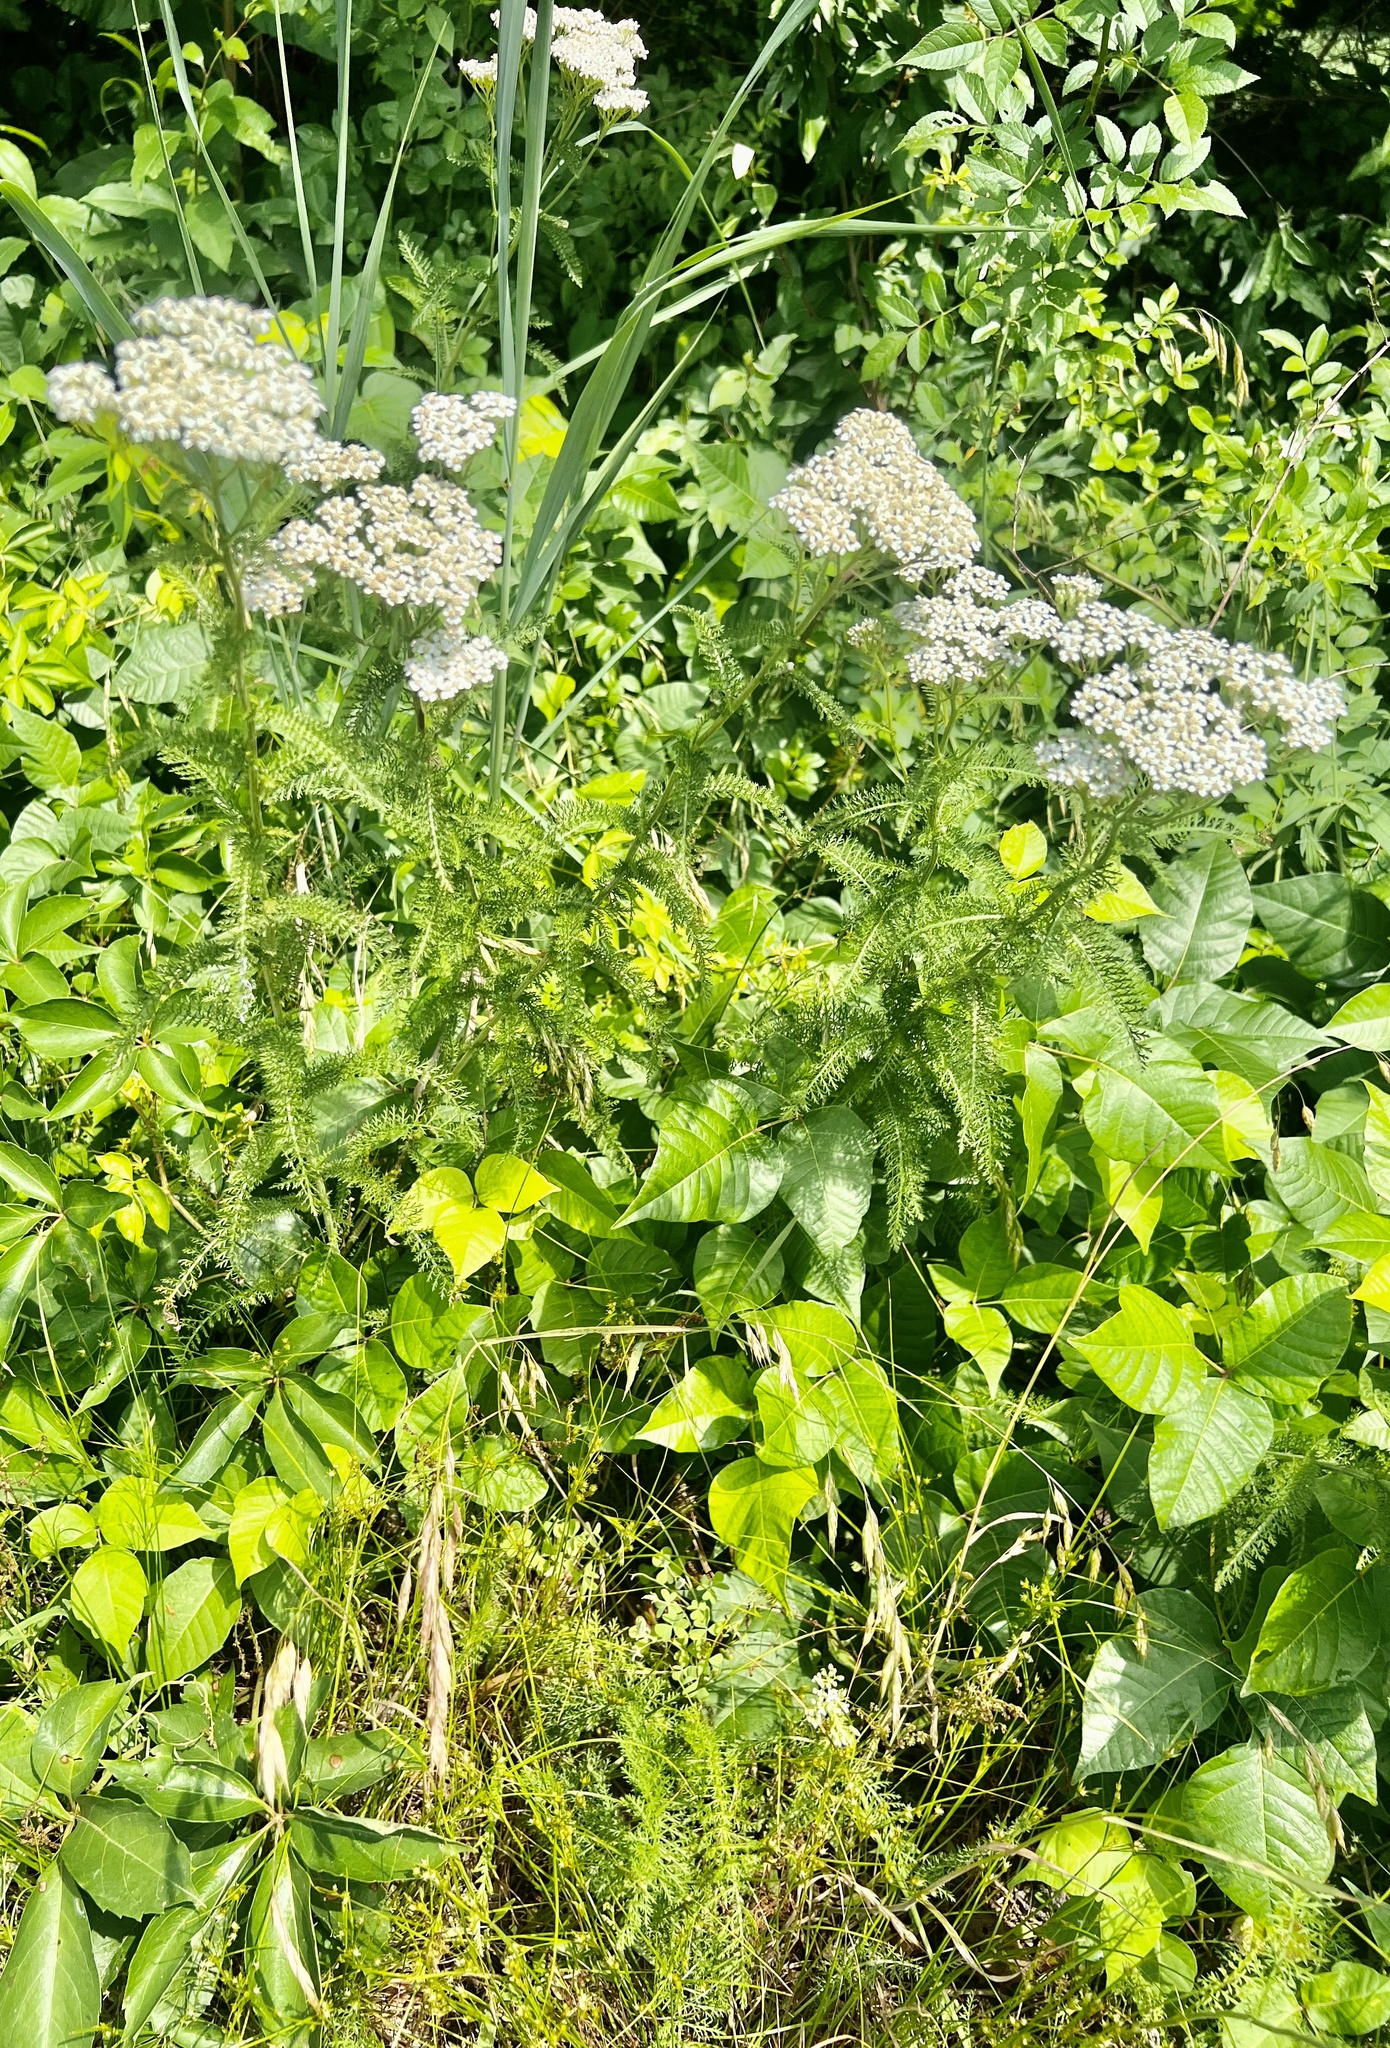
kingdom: Plantae
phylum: Tracheophyta
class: Magnoliopsida
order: Asterales
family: Asteraceae
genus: Achillea
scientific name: Achillea millefolium
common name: Yarrow
